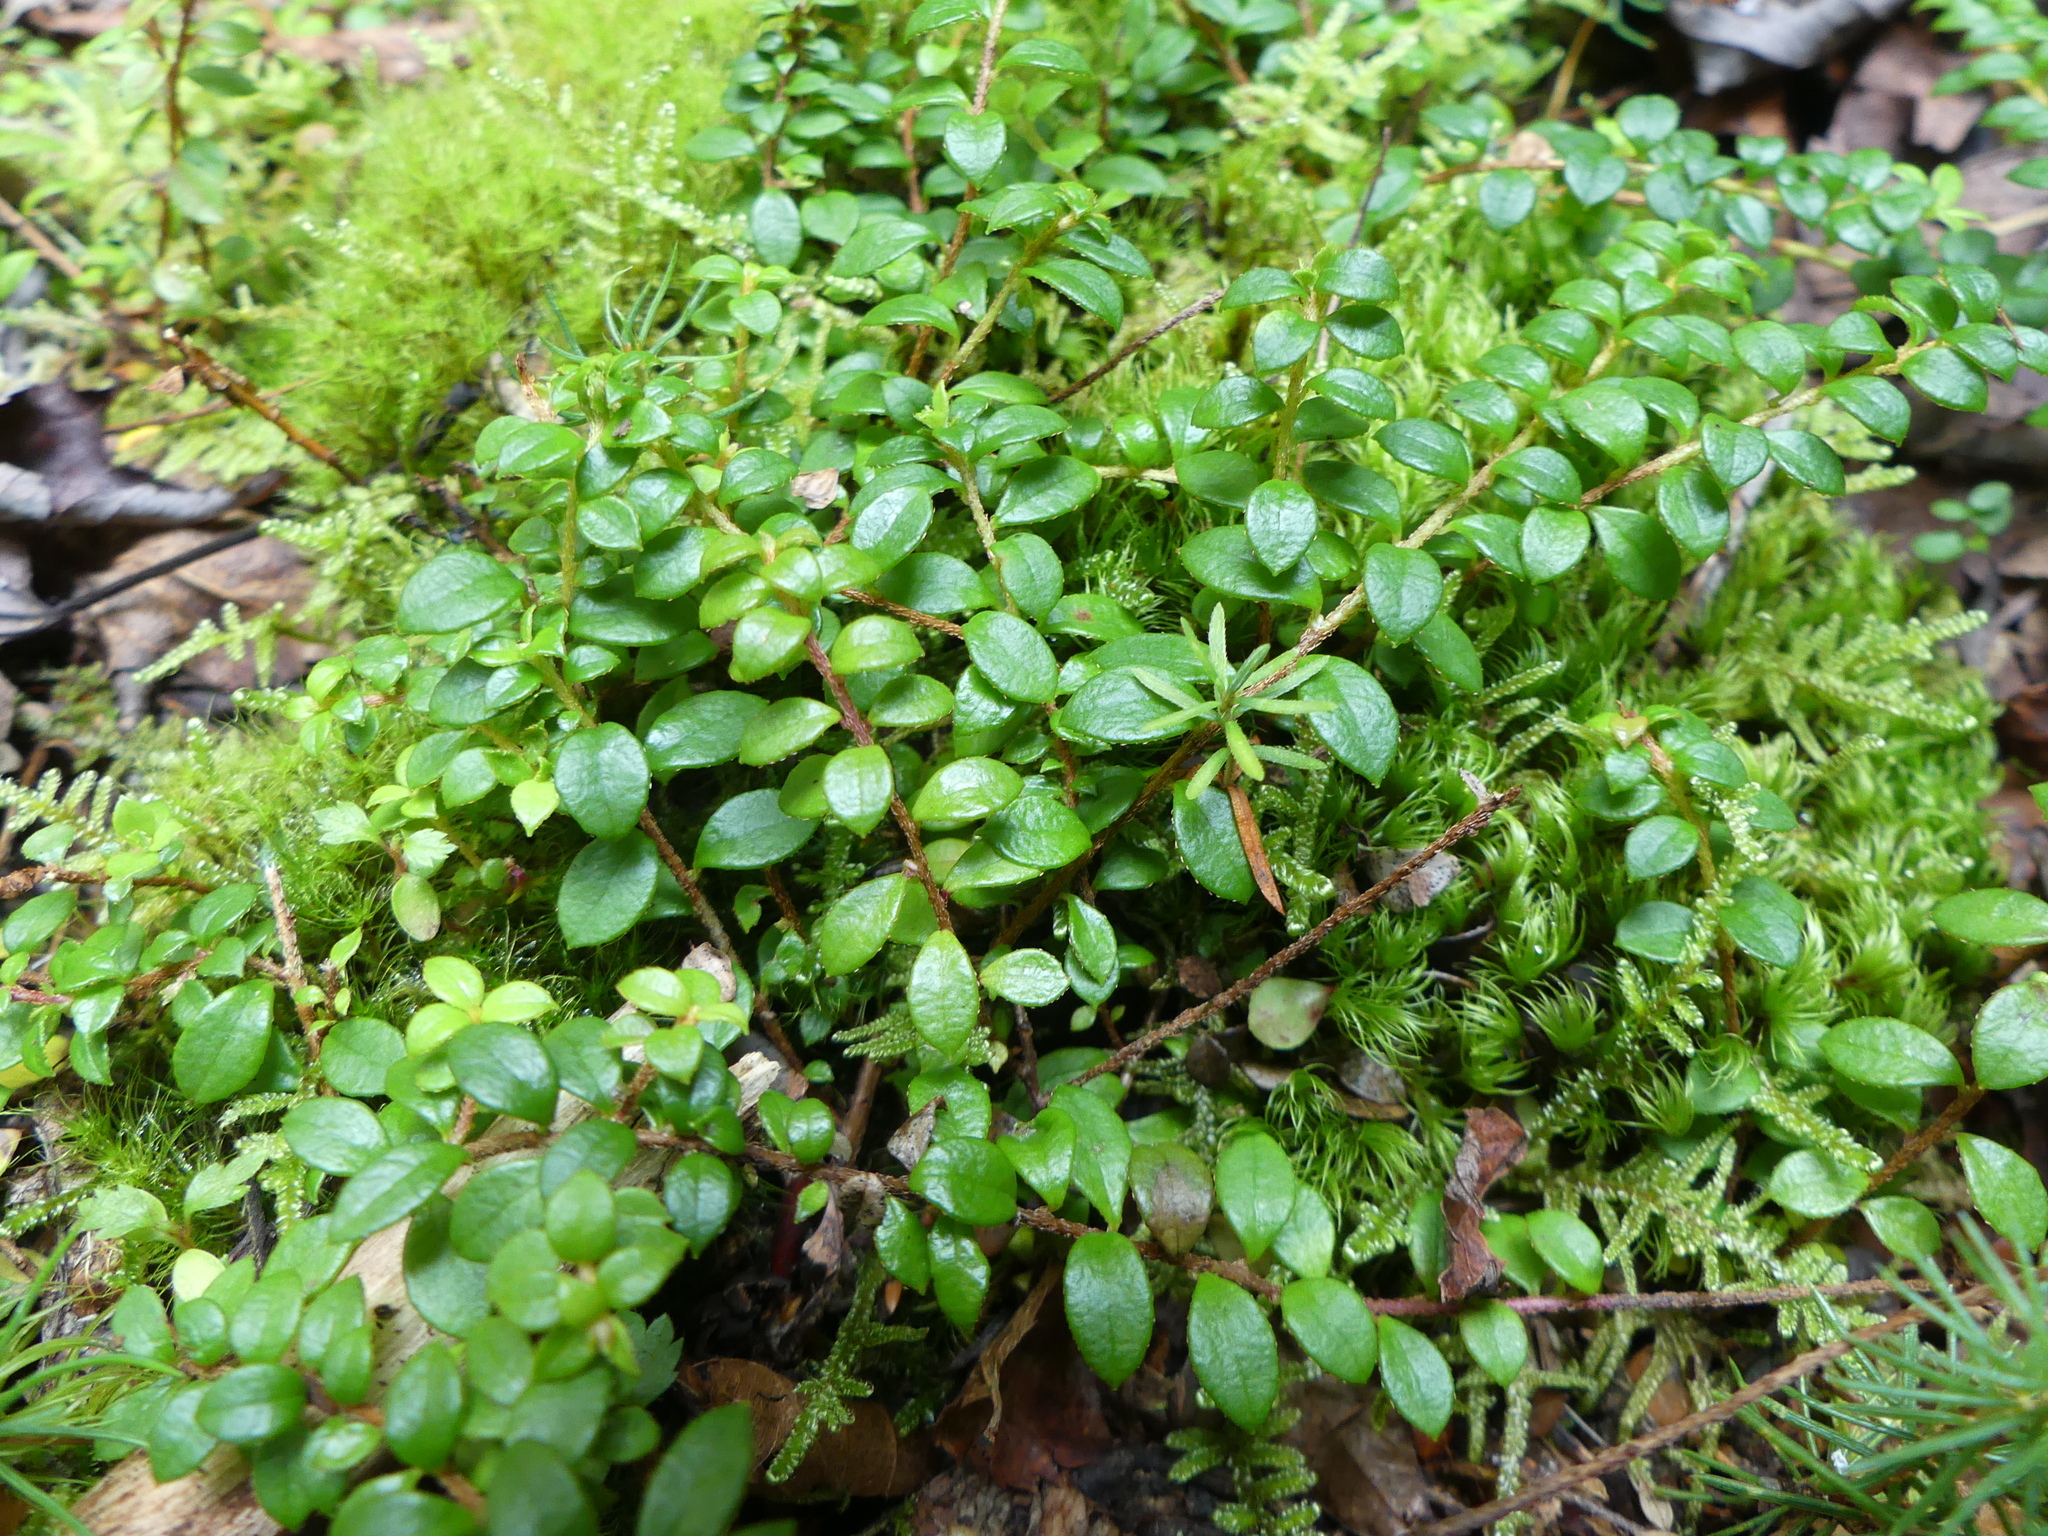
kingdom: Plantae
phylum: Tracheophyta
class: Magnoliopsida
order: Ericales
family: Ericaceae
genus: Gaultheria
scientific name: Gaultheria hispidula
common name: Cancer wintergreen
